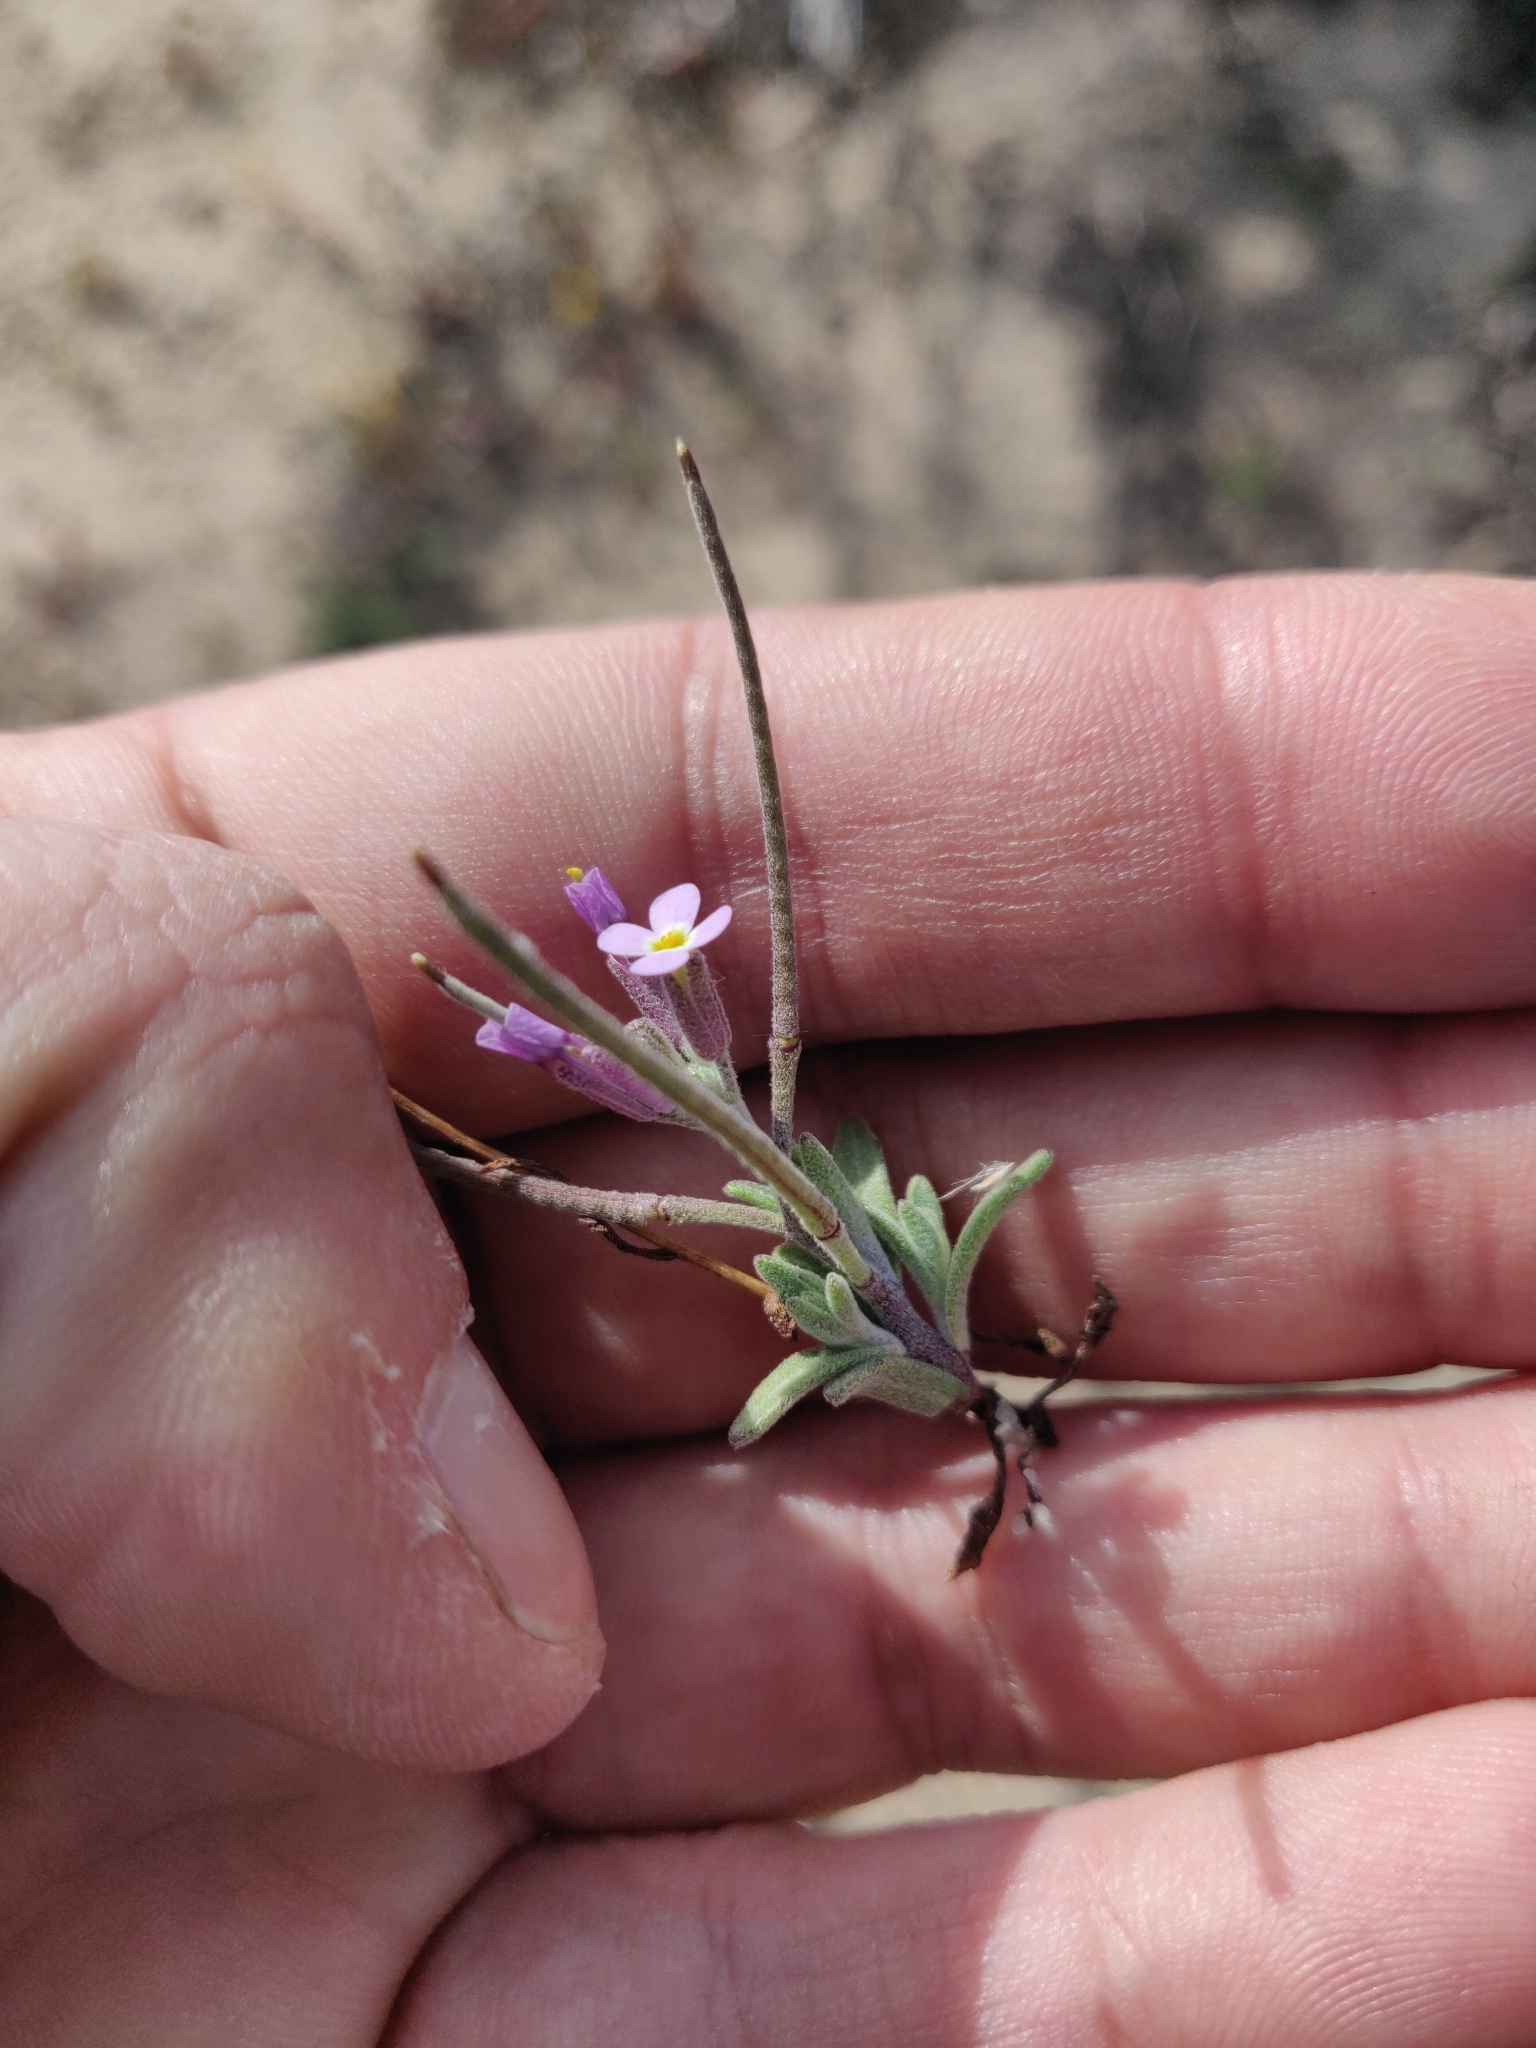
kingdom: Plantae
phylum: Tracheophyta
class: Magnoliopsida
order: Brassicales
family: Brassicaceae
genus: Marcuskochia
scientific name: Marcuskochia ramosissima
